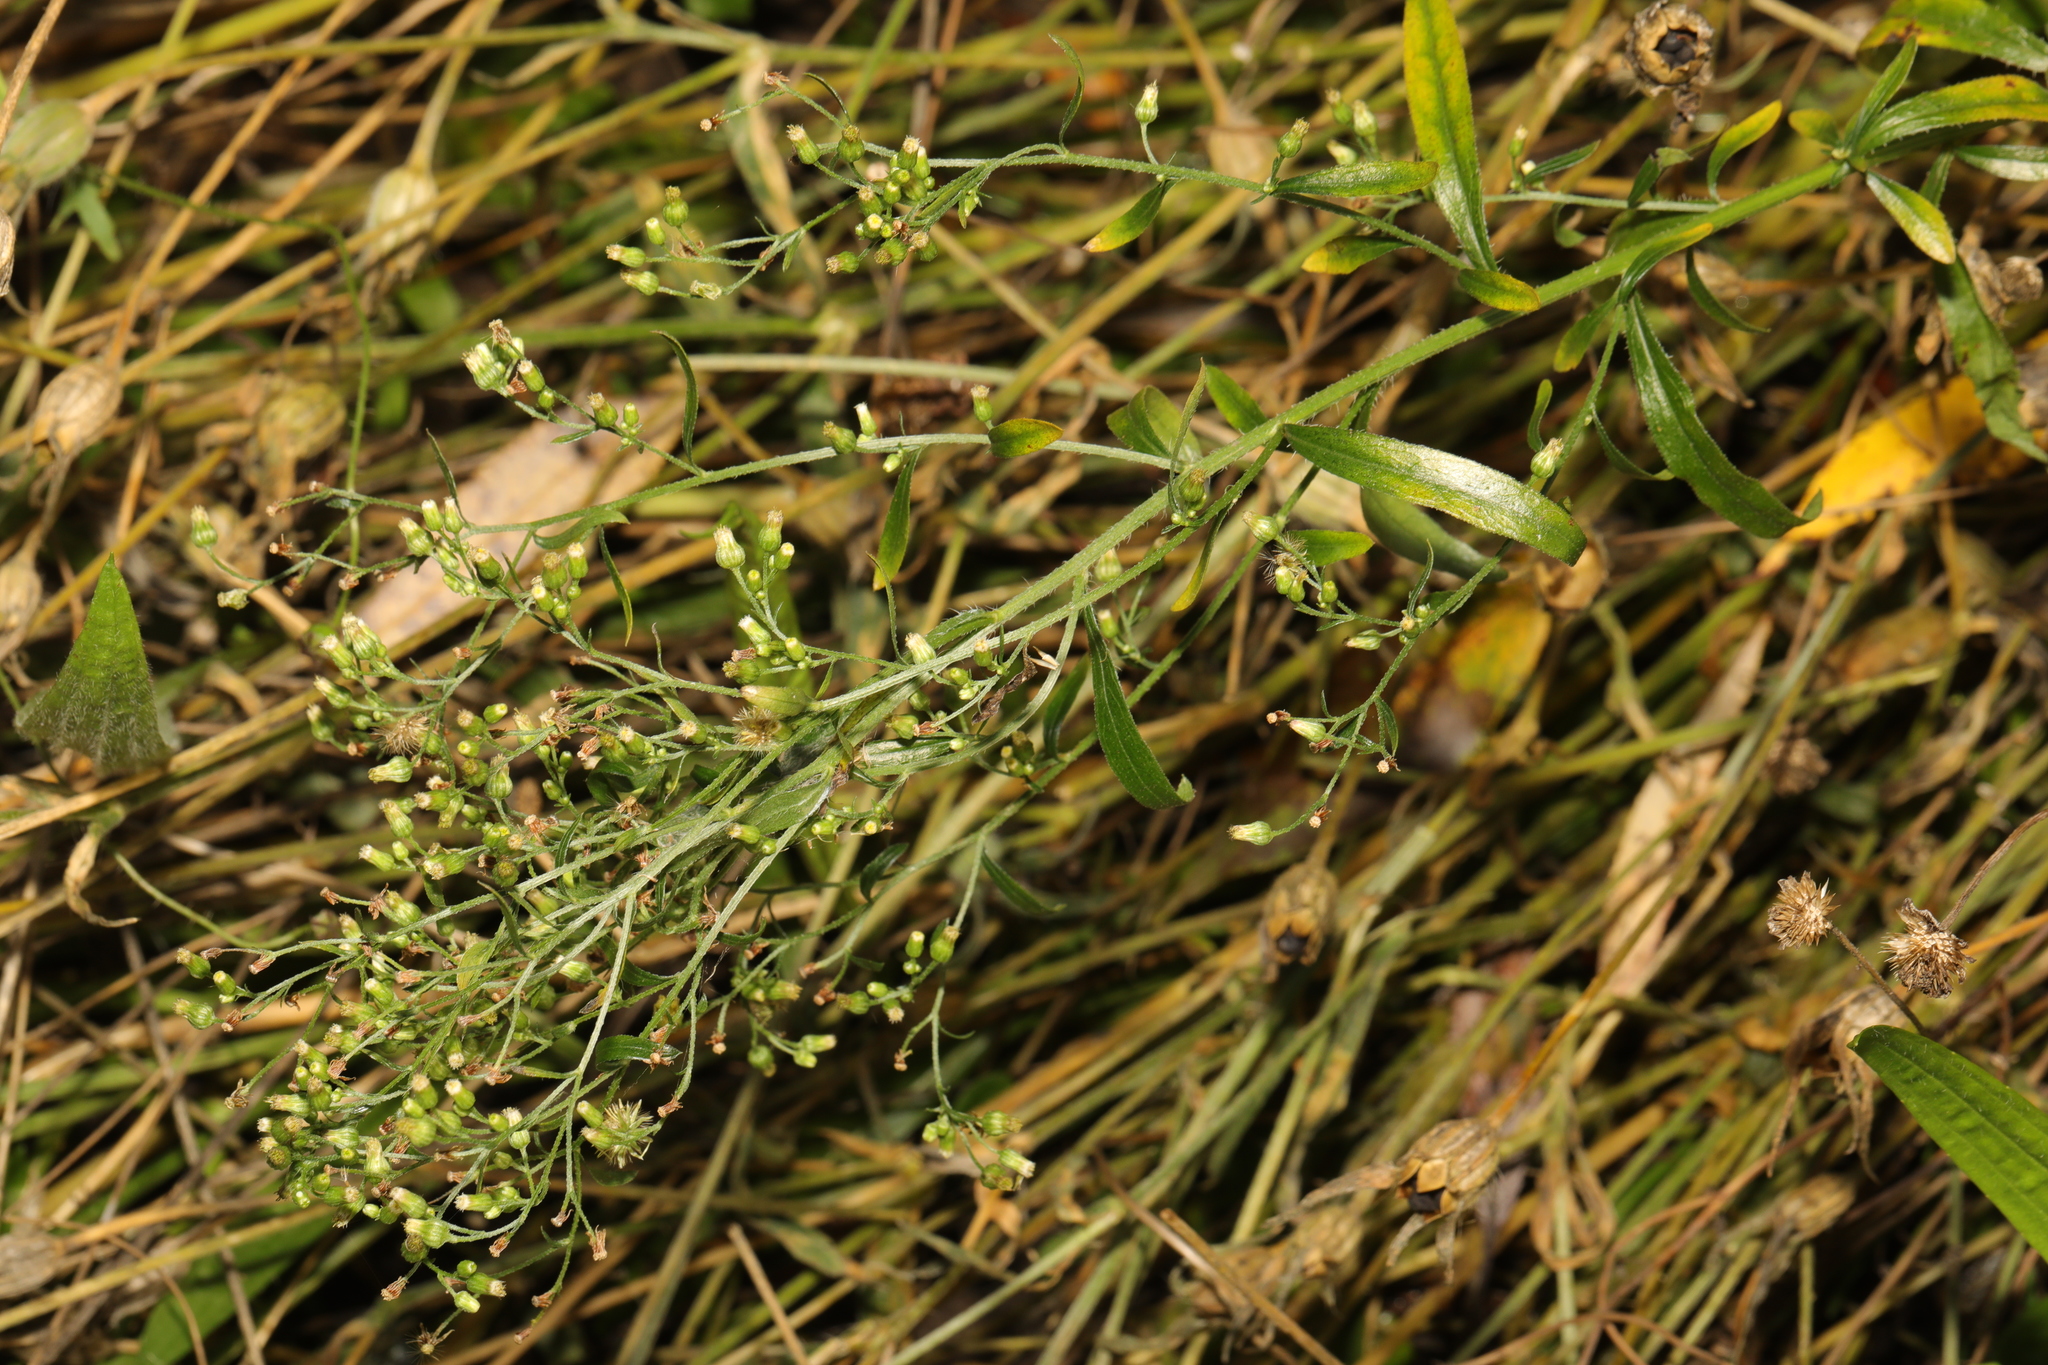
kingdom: Plantae
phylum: Tracheophyta
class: Magnoliopsida
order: Asterales
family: Asteraceae
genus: Erigeron
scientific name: Erigeron canadensis
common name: Canadian fleabane
